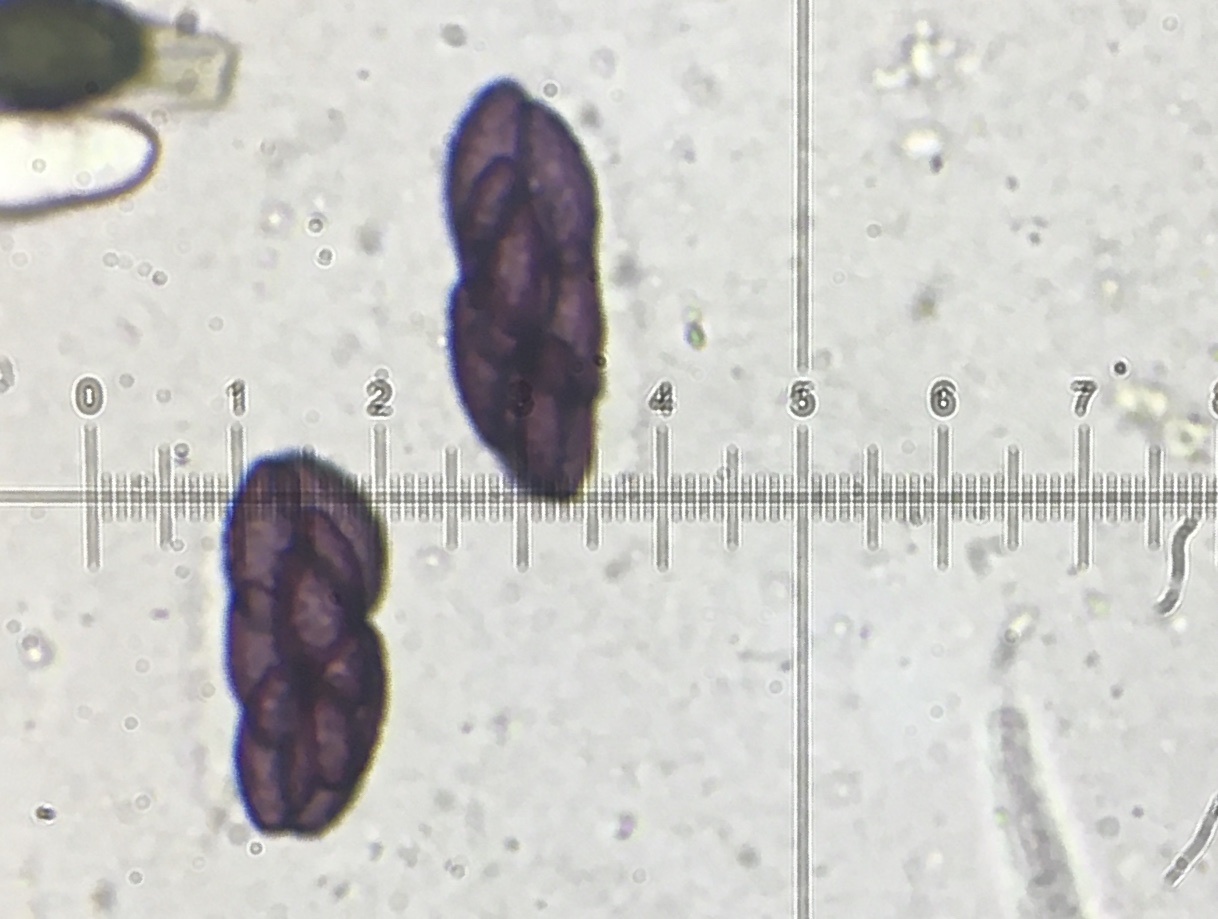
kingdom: Fungi
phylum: Ascomycota
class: Pezizomycetes
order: Pezizales
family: Ascobolaceae
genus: Saccobolus
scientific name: Saccobolus verrucisporus
